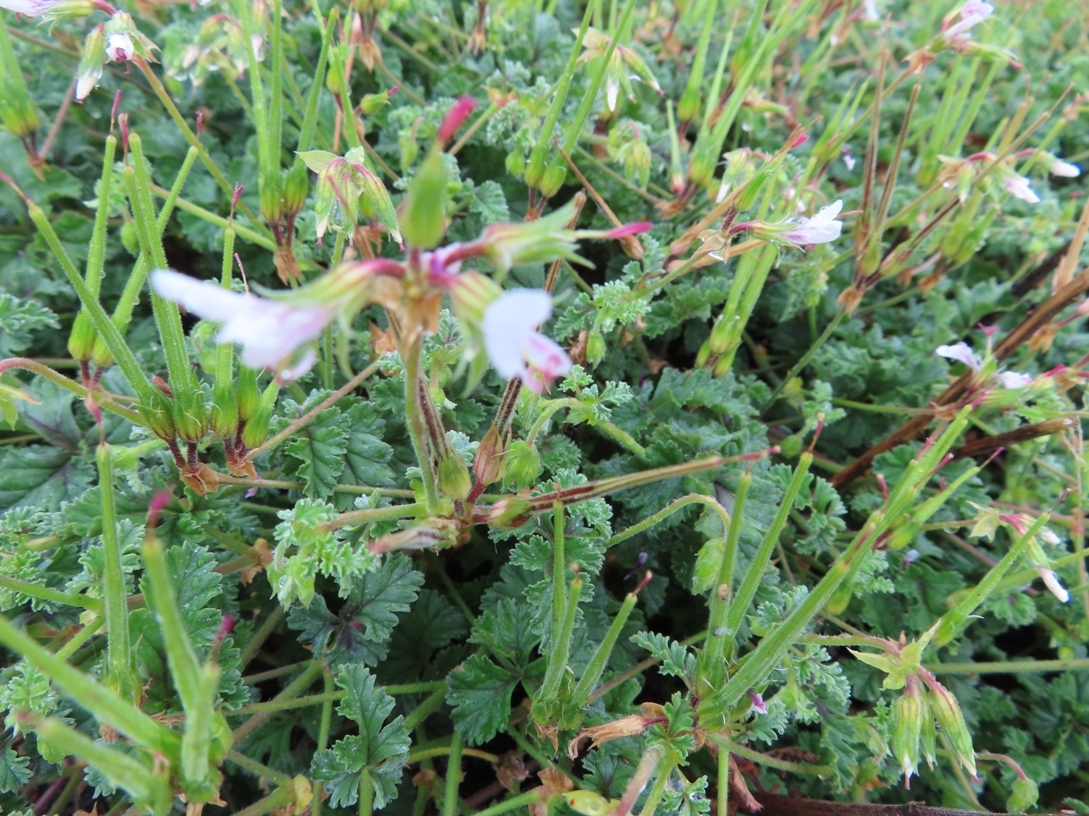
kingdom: Plantae
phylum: Tracheophyta
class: Magnoliopsida
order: Geraniales
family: Geraniaceae
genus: Pelargonium
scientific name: Pelargonium candicans
